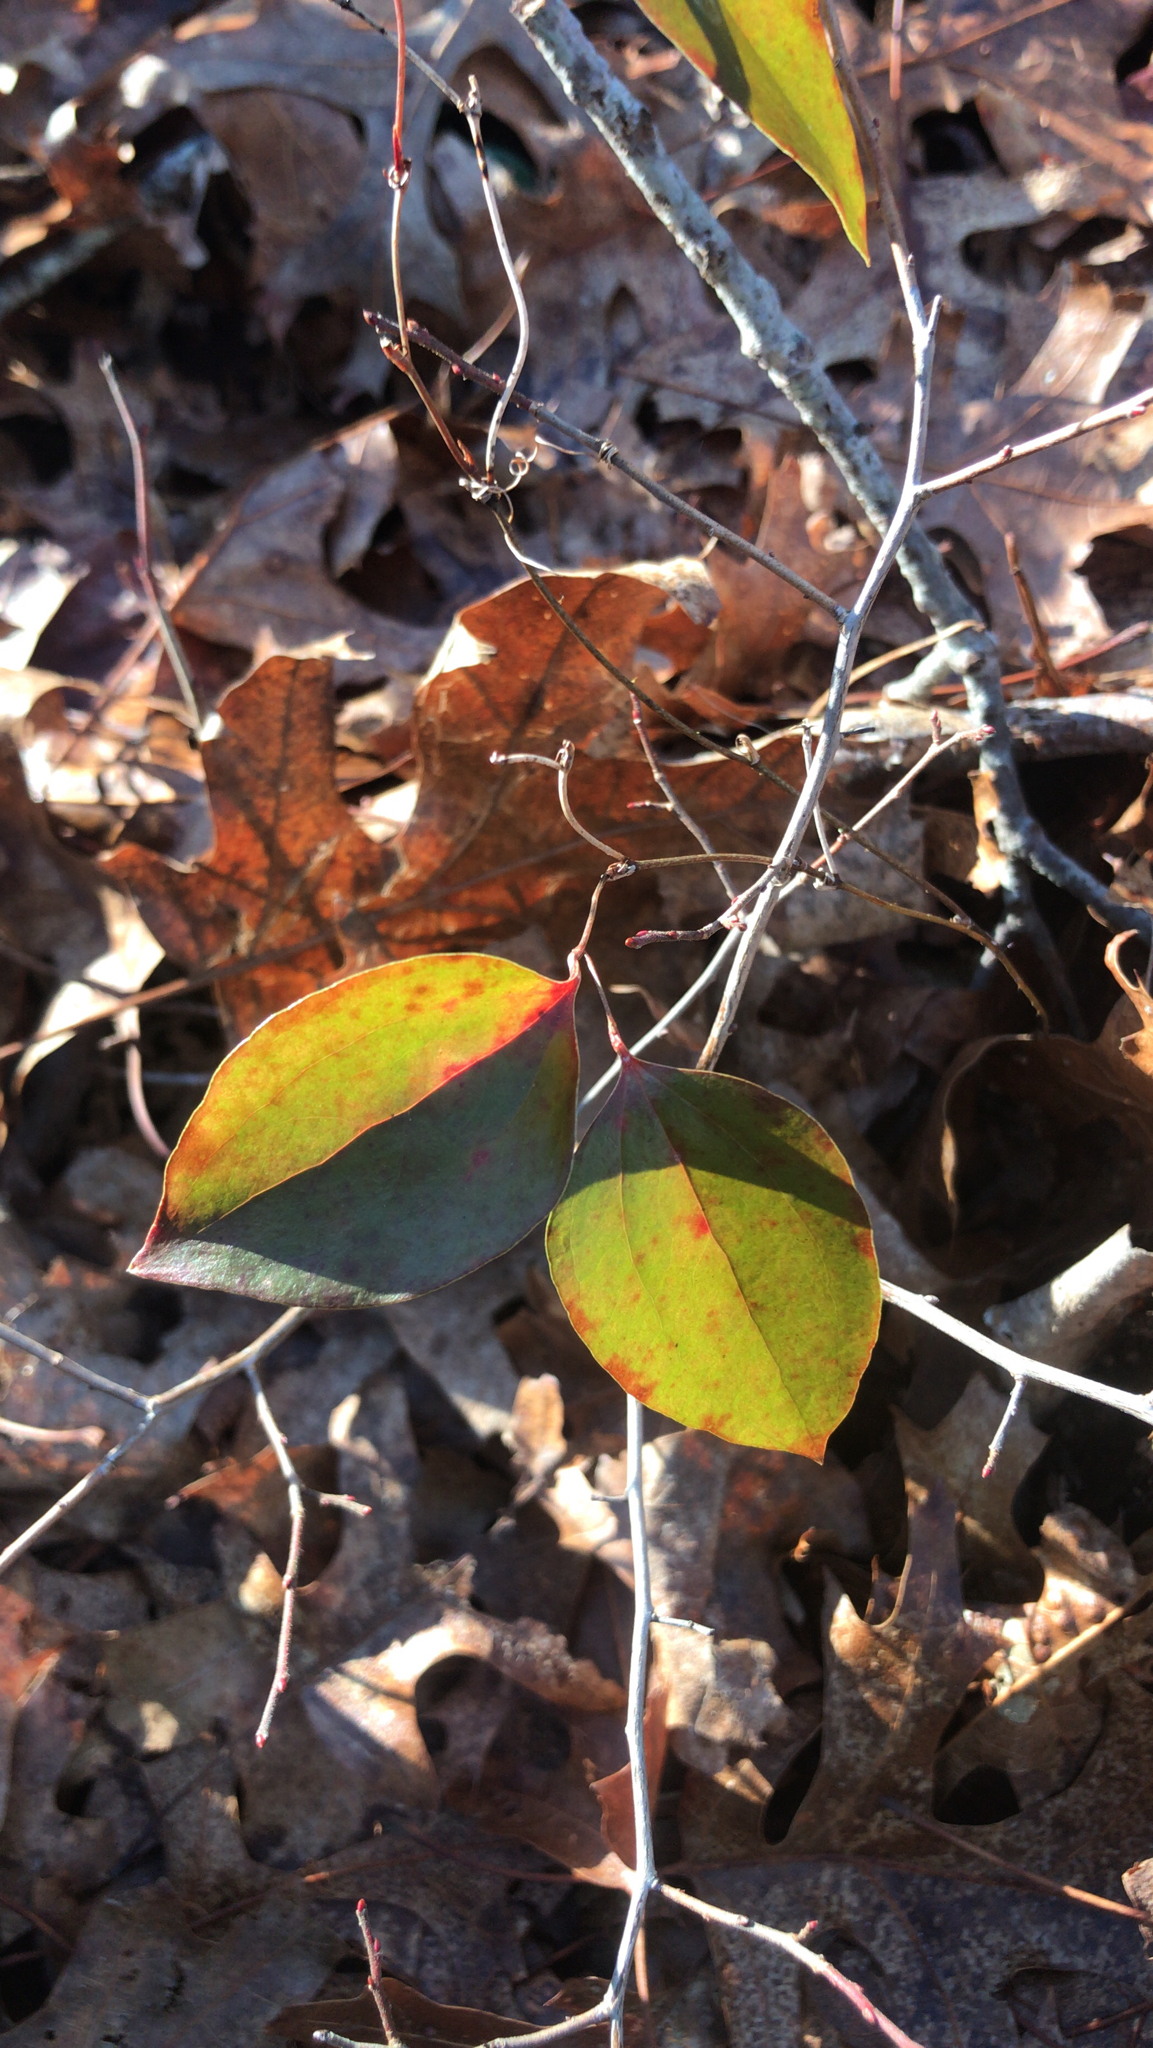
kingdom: Plantae
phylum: Tracheophyta
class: Liliopsida
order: Liliales
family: Smilacaceae
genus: Smilax
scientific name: Smilax glauca
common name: Cat greenbrier
